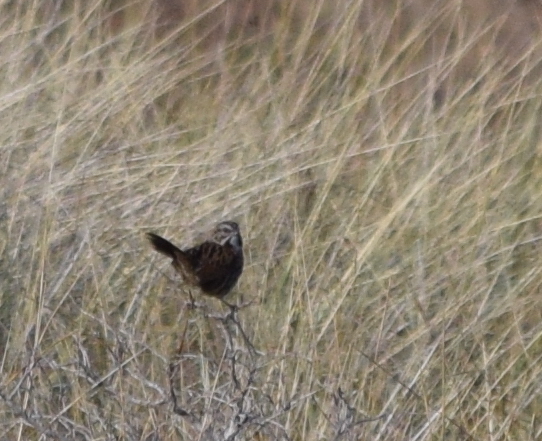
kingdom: Animalia
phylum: Chordata
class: Aves
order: Passeriformes
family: Passerellidae
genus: Melospiza
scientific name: Melospiza melodia
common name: Song sparrow
